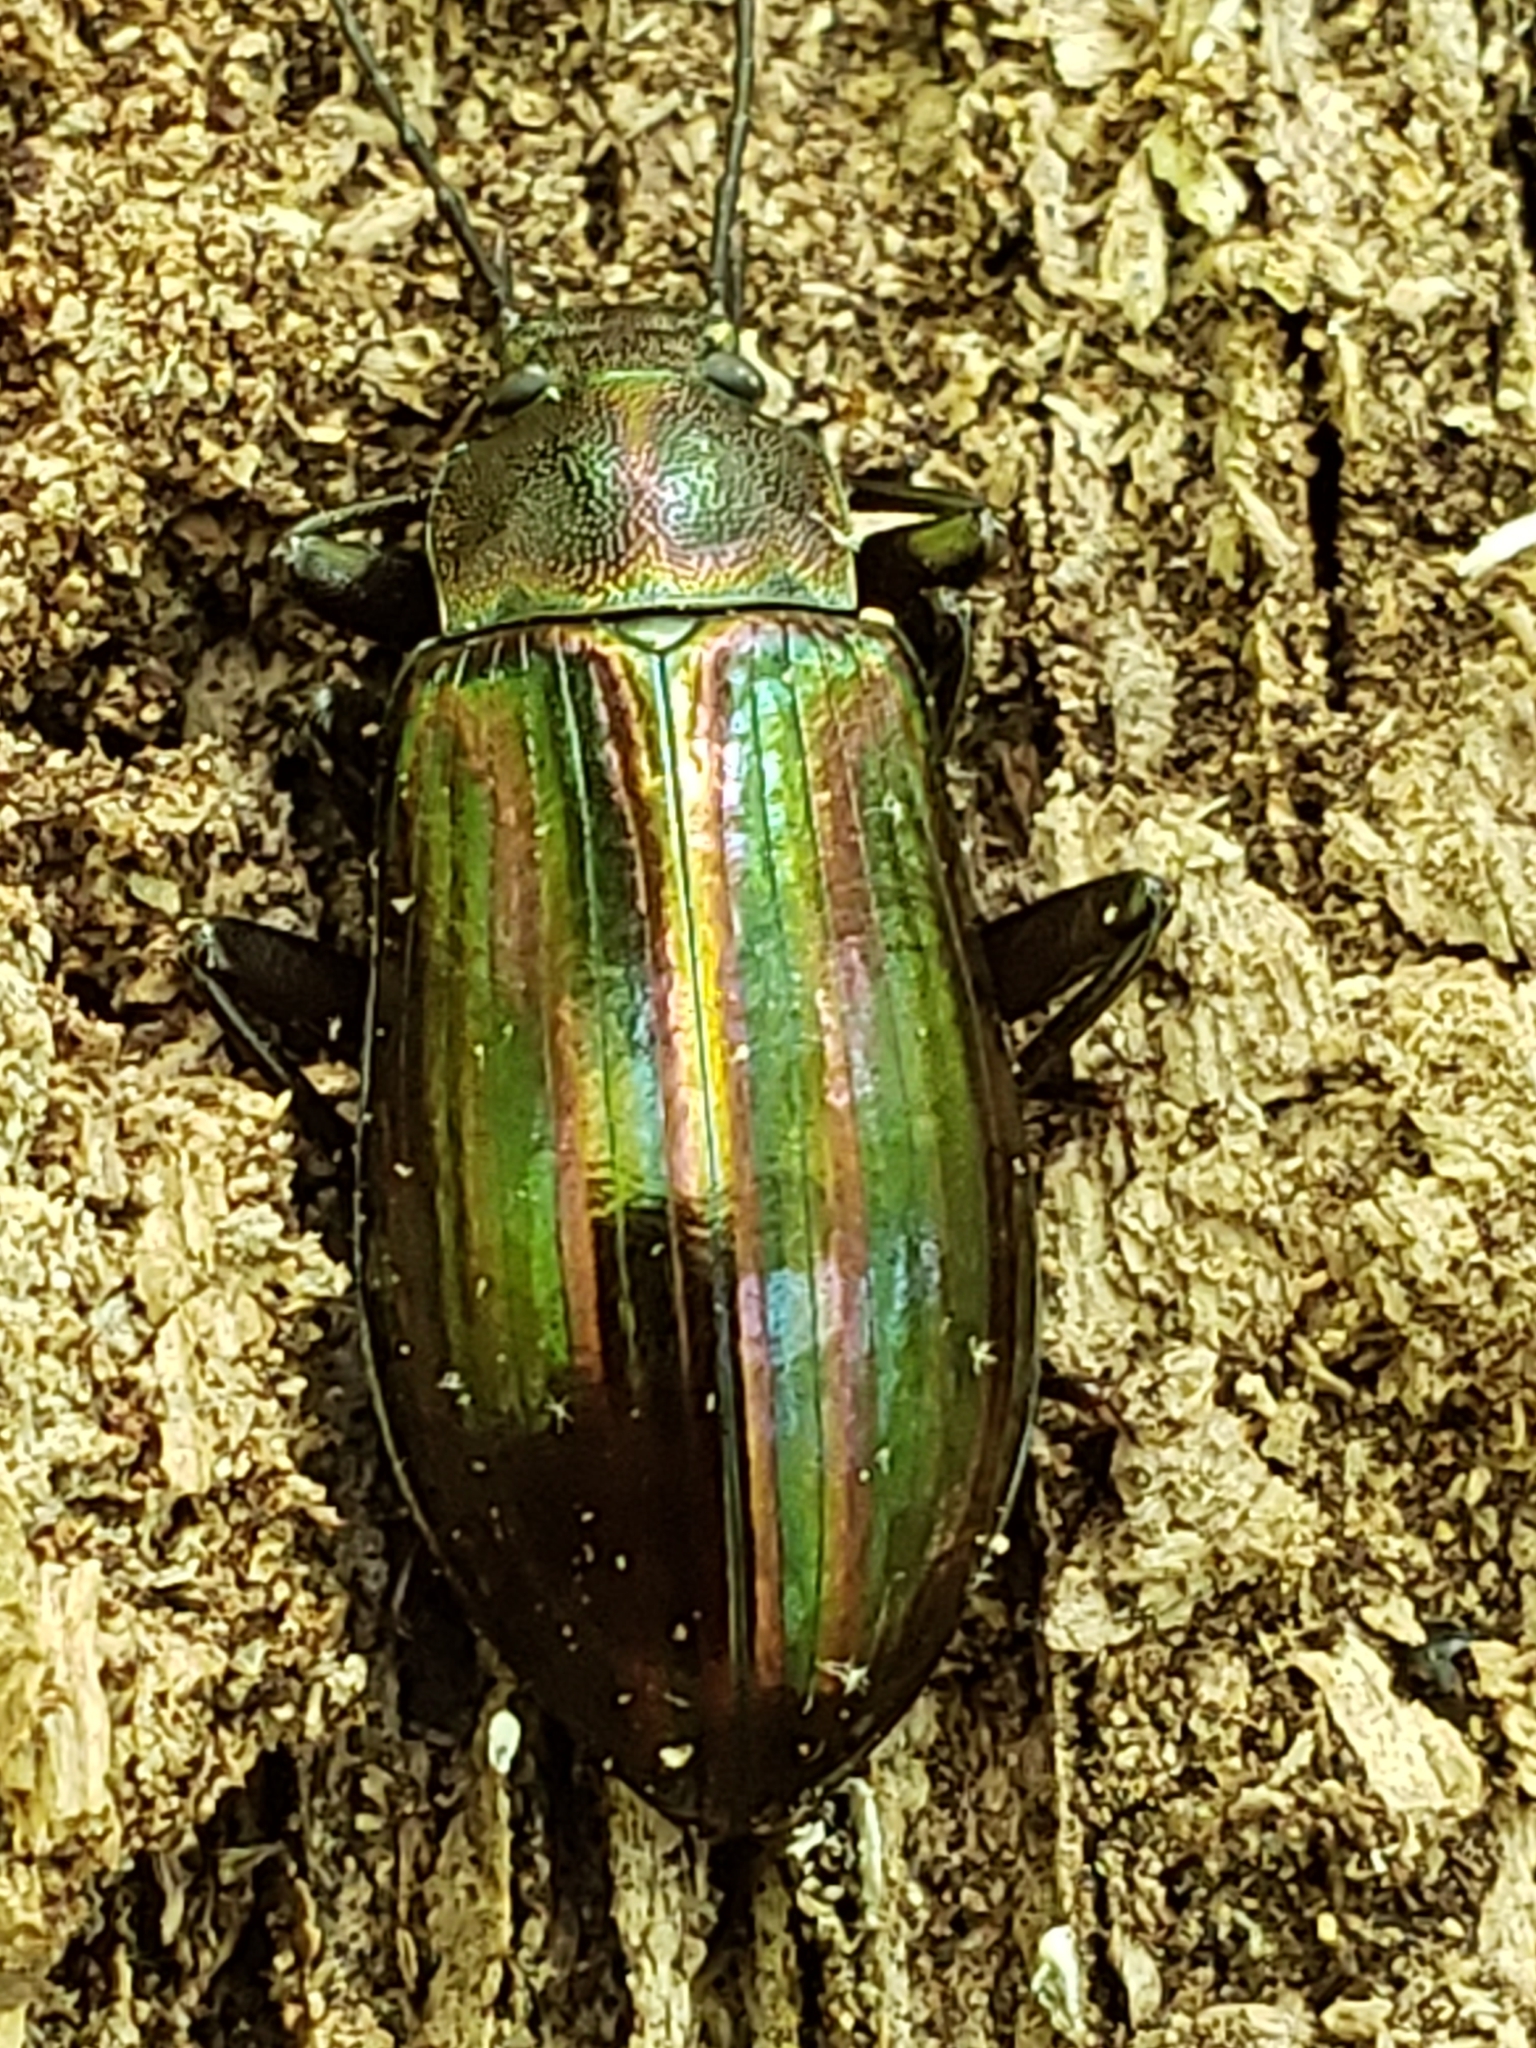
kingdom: Animalia
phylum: Arthropoda
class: Insecta
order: Coleoptera
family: Tenebrionidae
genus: Tarpela
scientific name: Tarpela micans
